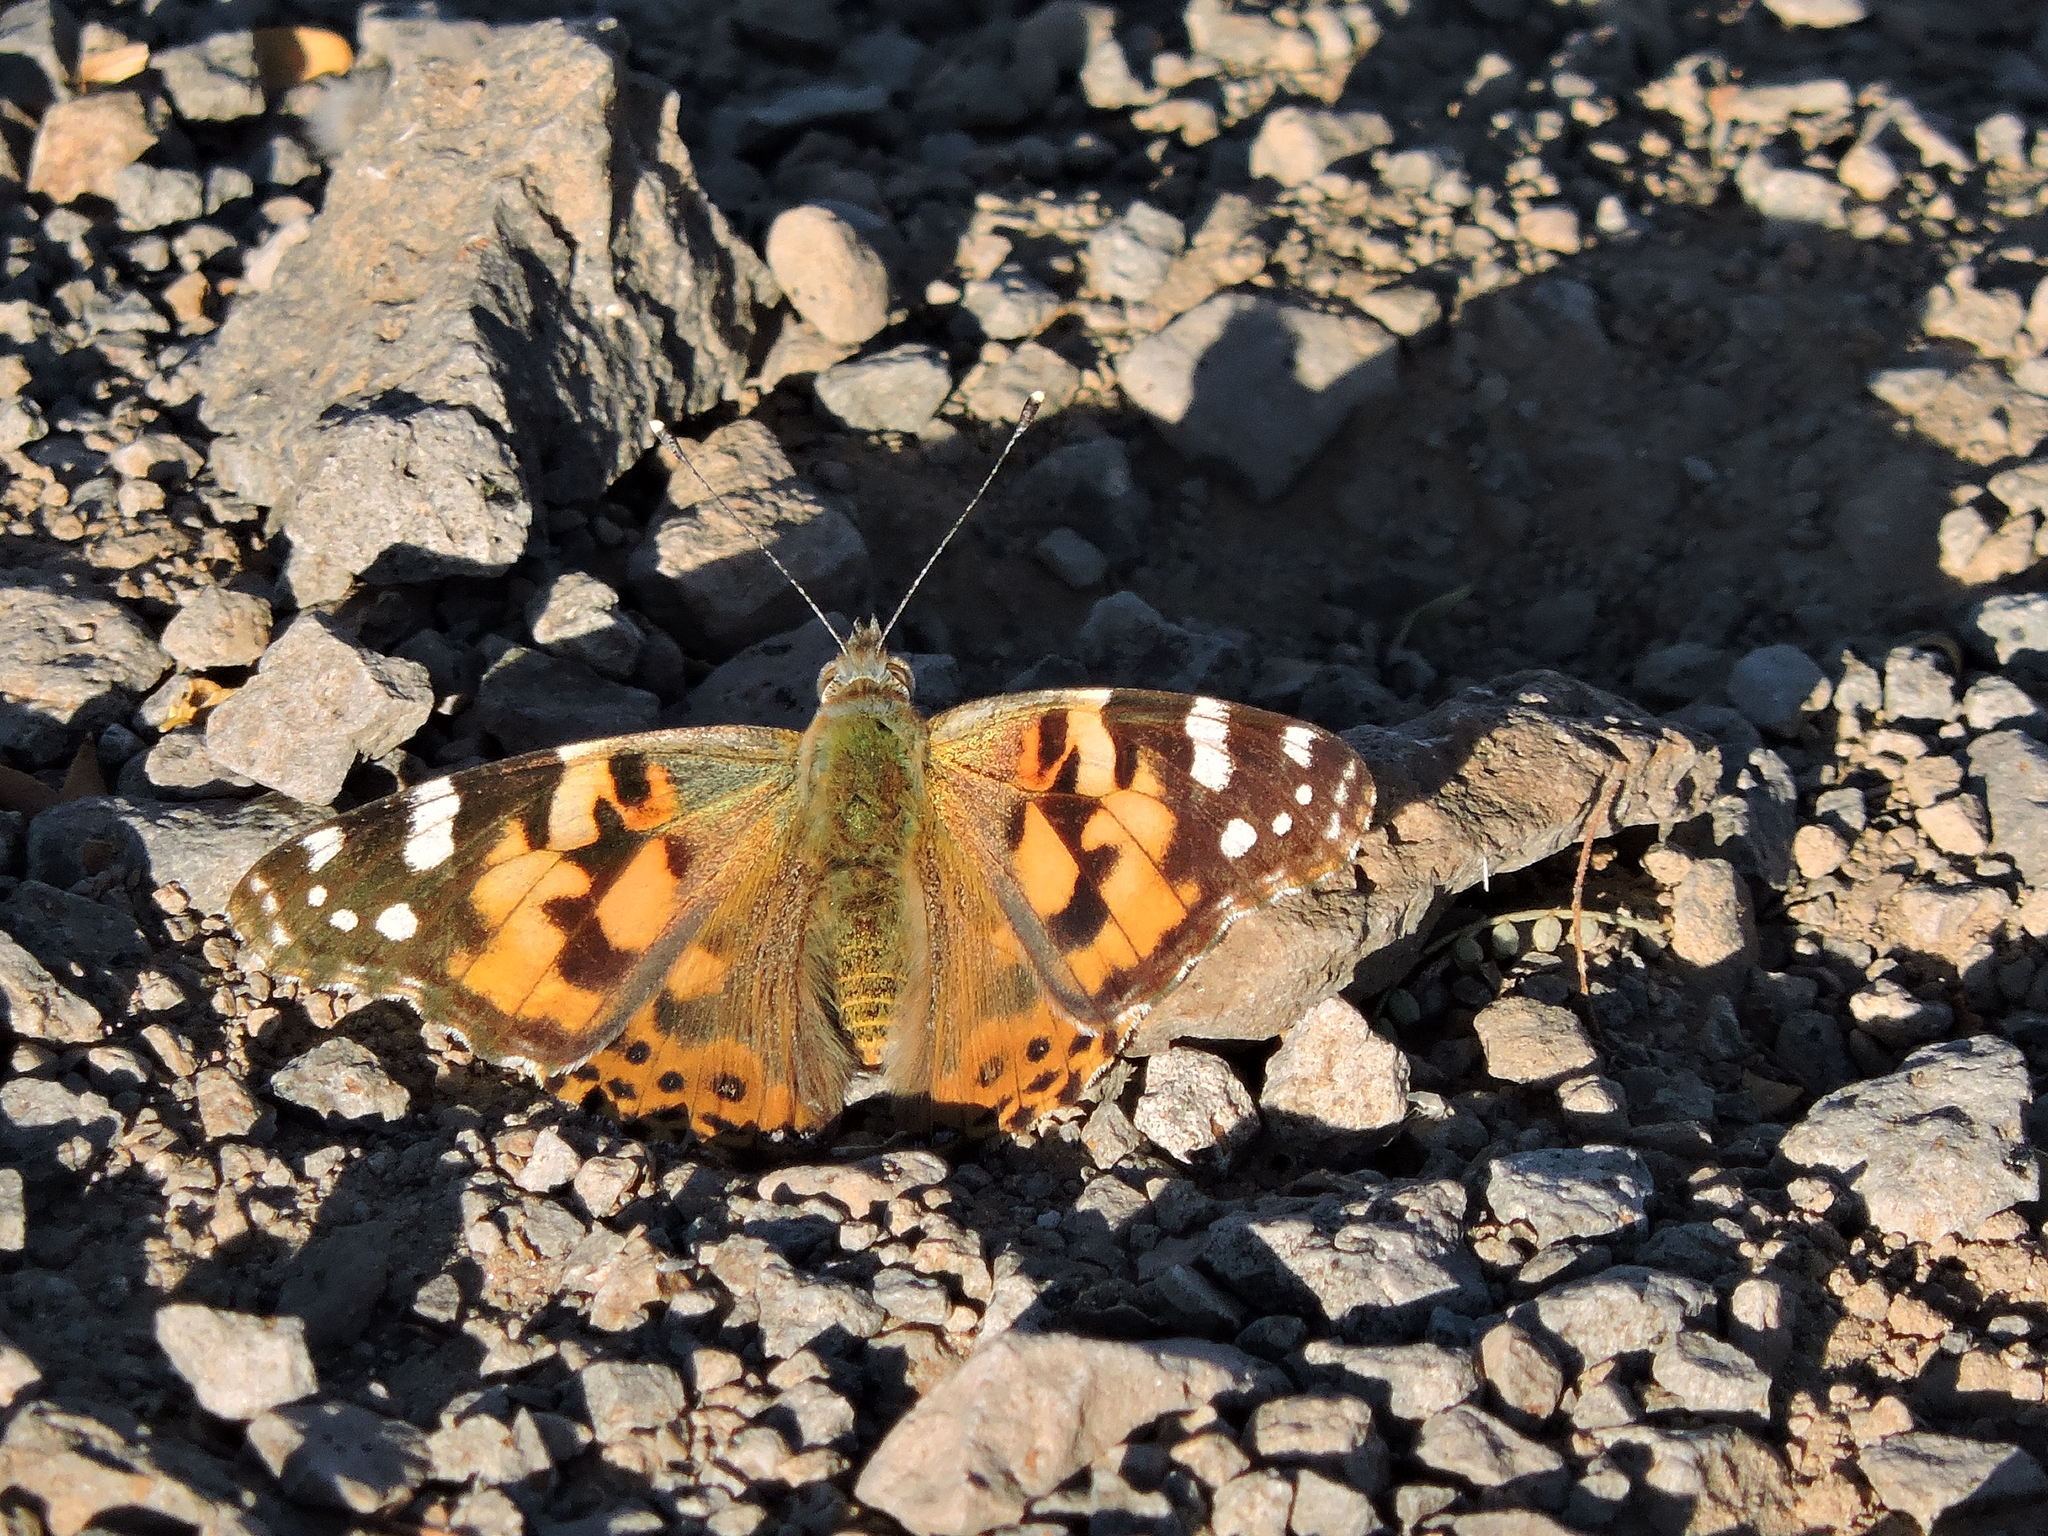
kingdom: Animalia
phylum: Arthropoda
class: Insecta
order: Lepidoptera
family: Nymphalidae
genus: Vanessa
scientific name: Vanessa cardui
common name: Painted lady
